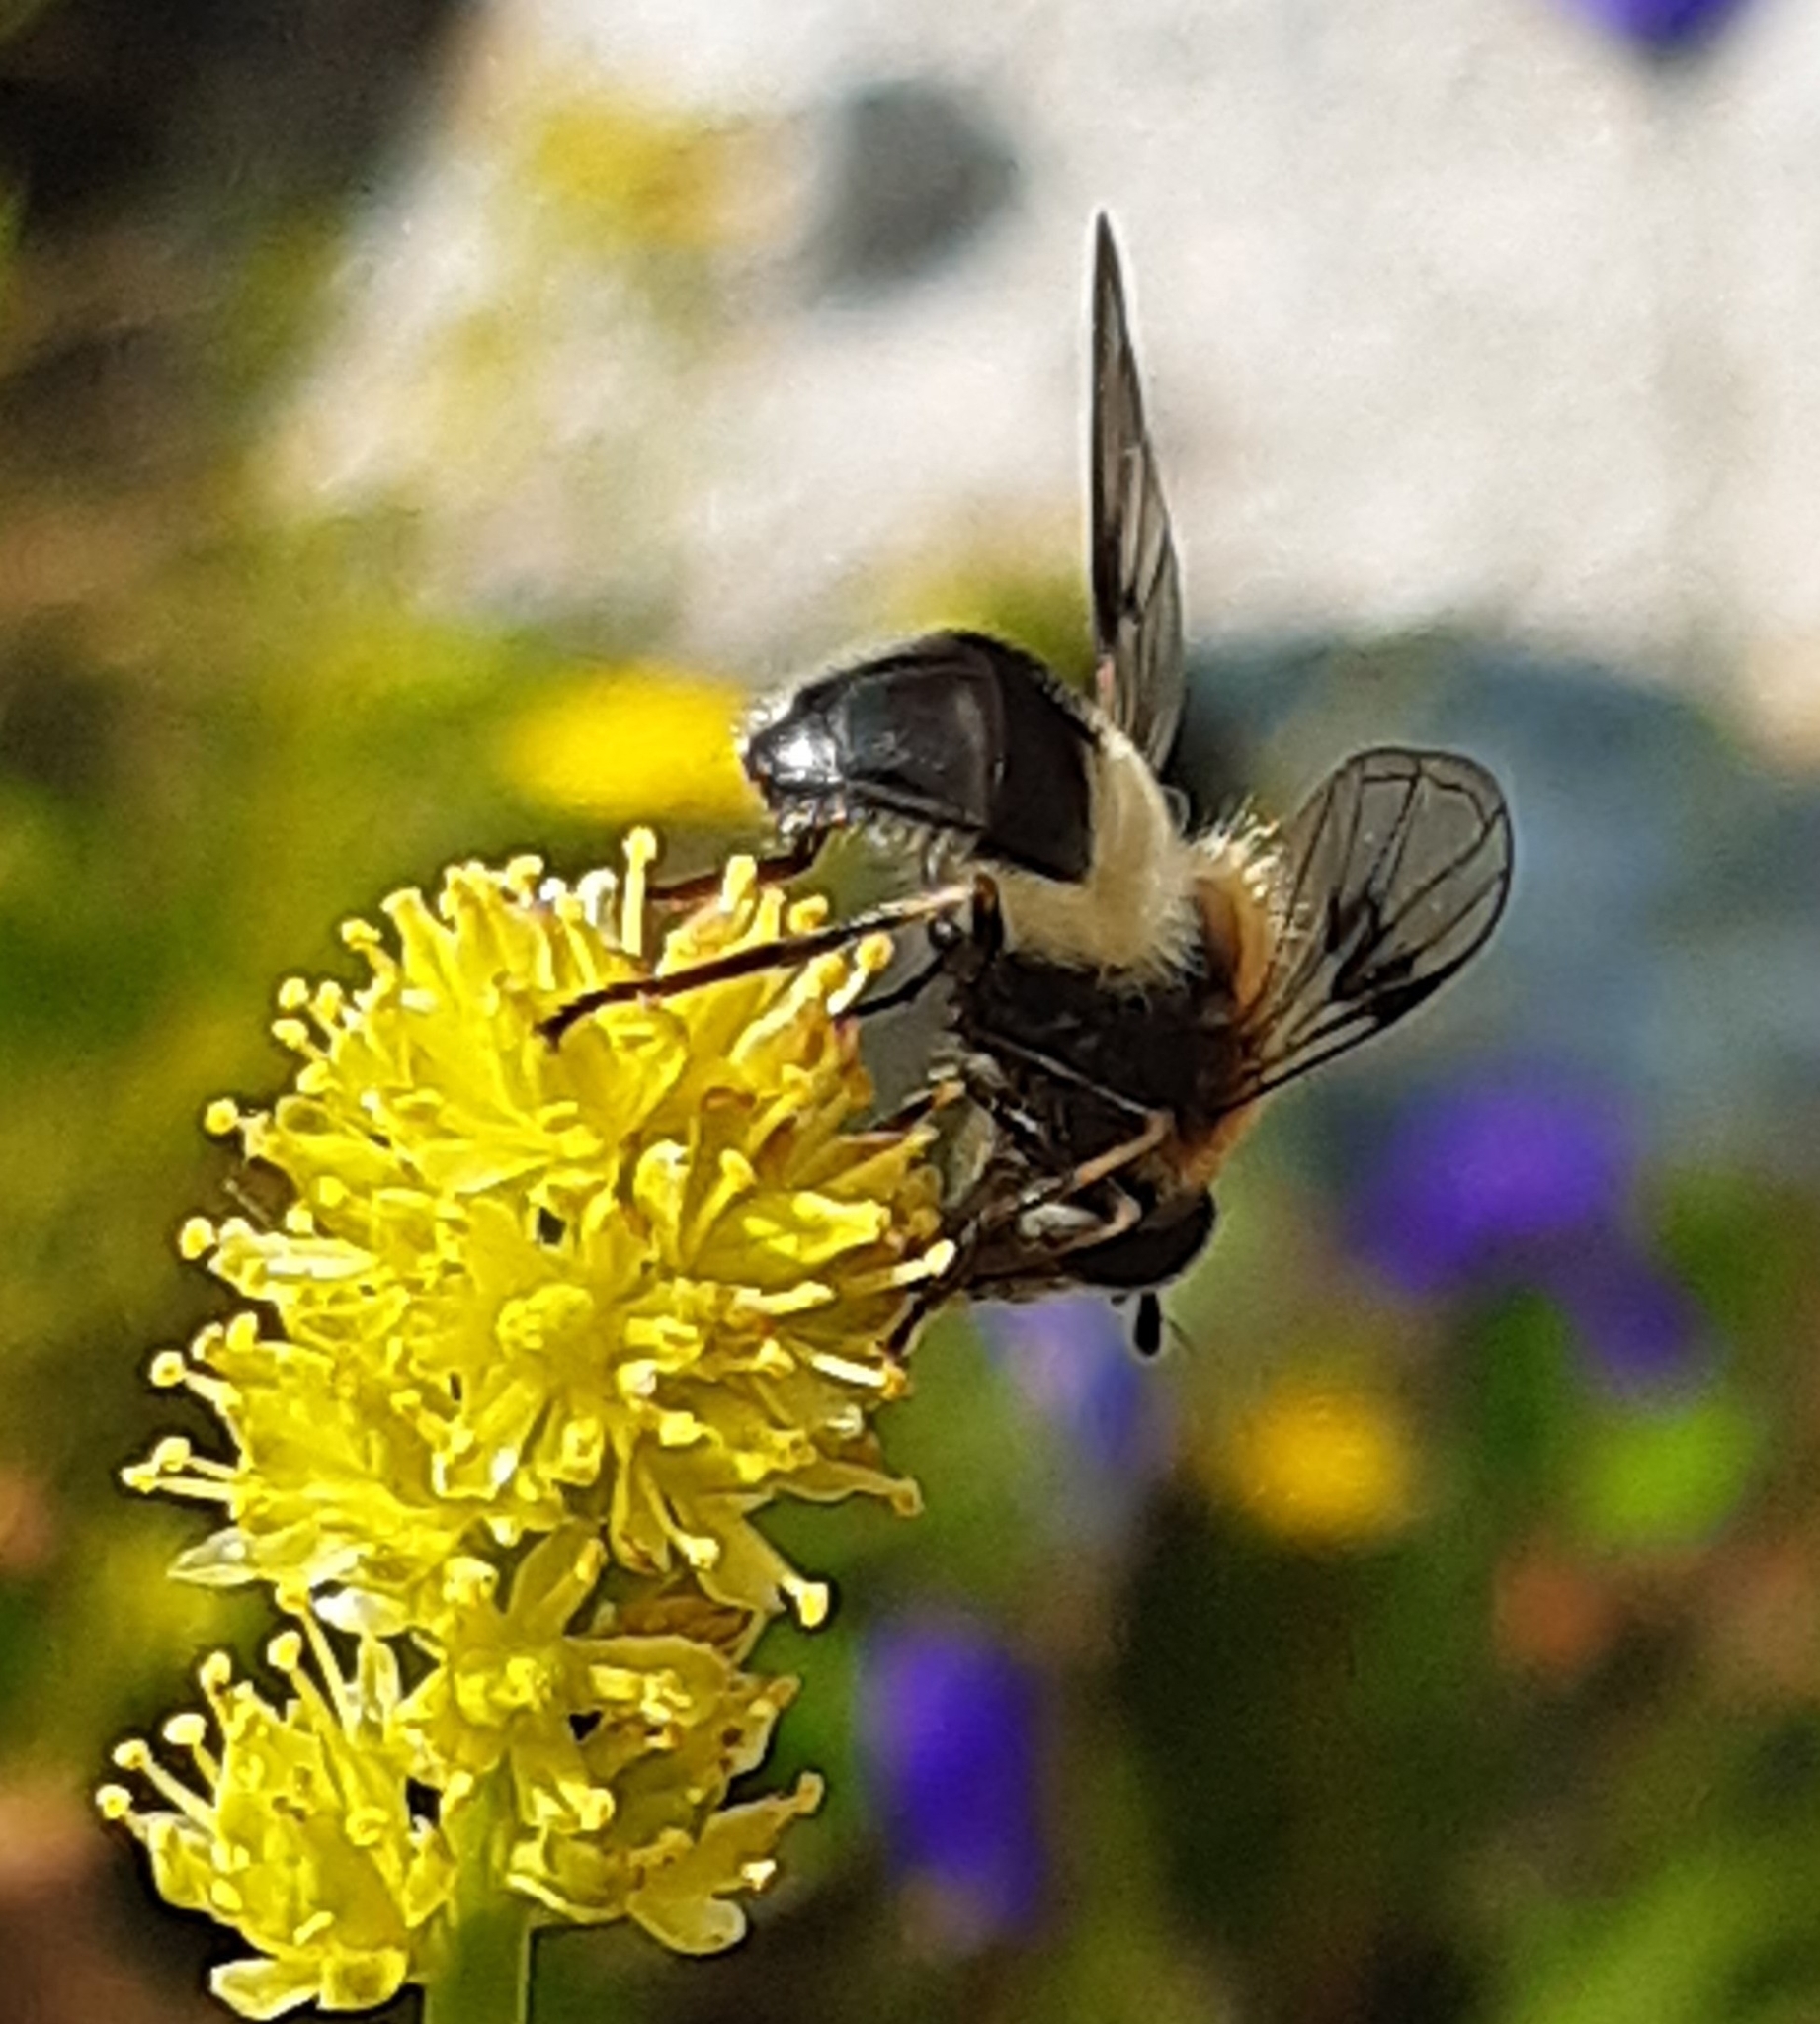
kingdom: Animalia
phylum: Arthropoda
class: Insecta
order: Diptera
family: Syrphidae
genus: Leucozona
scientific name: Leucozona lucorum
